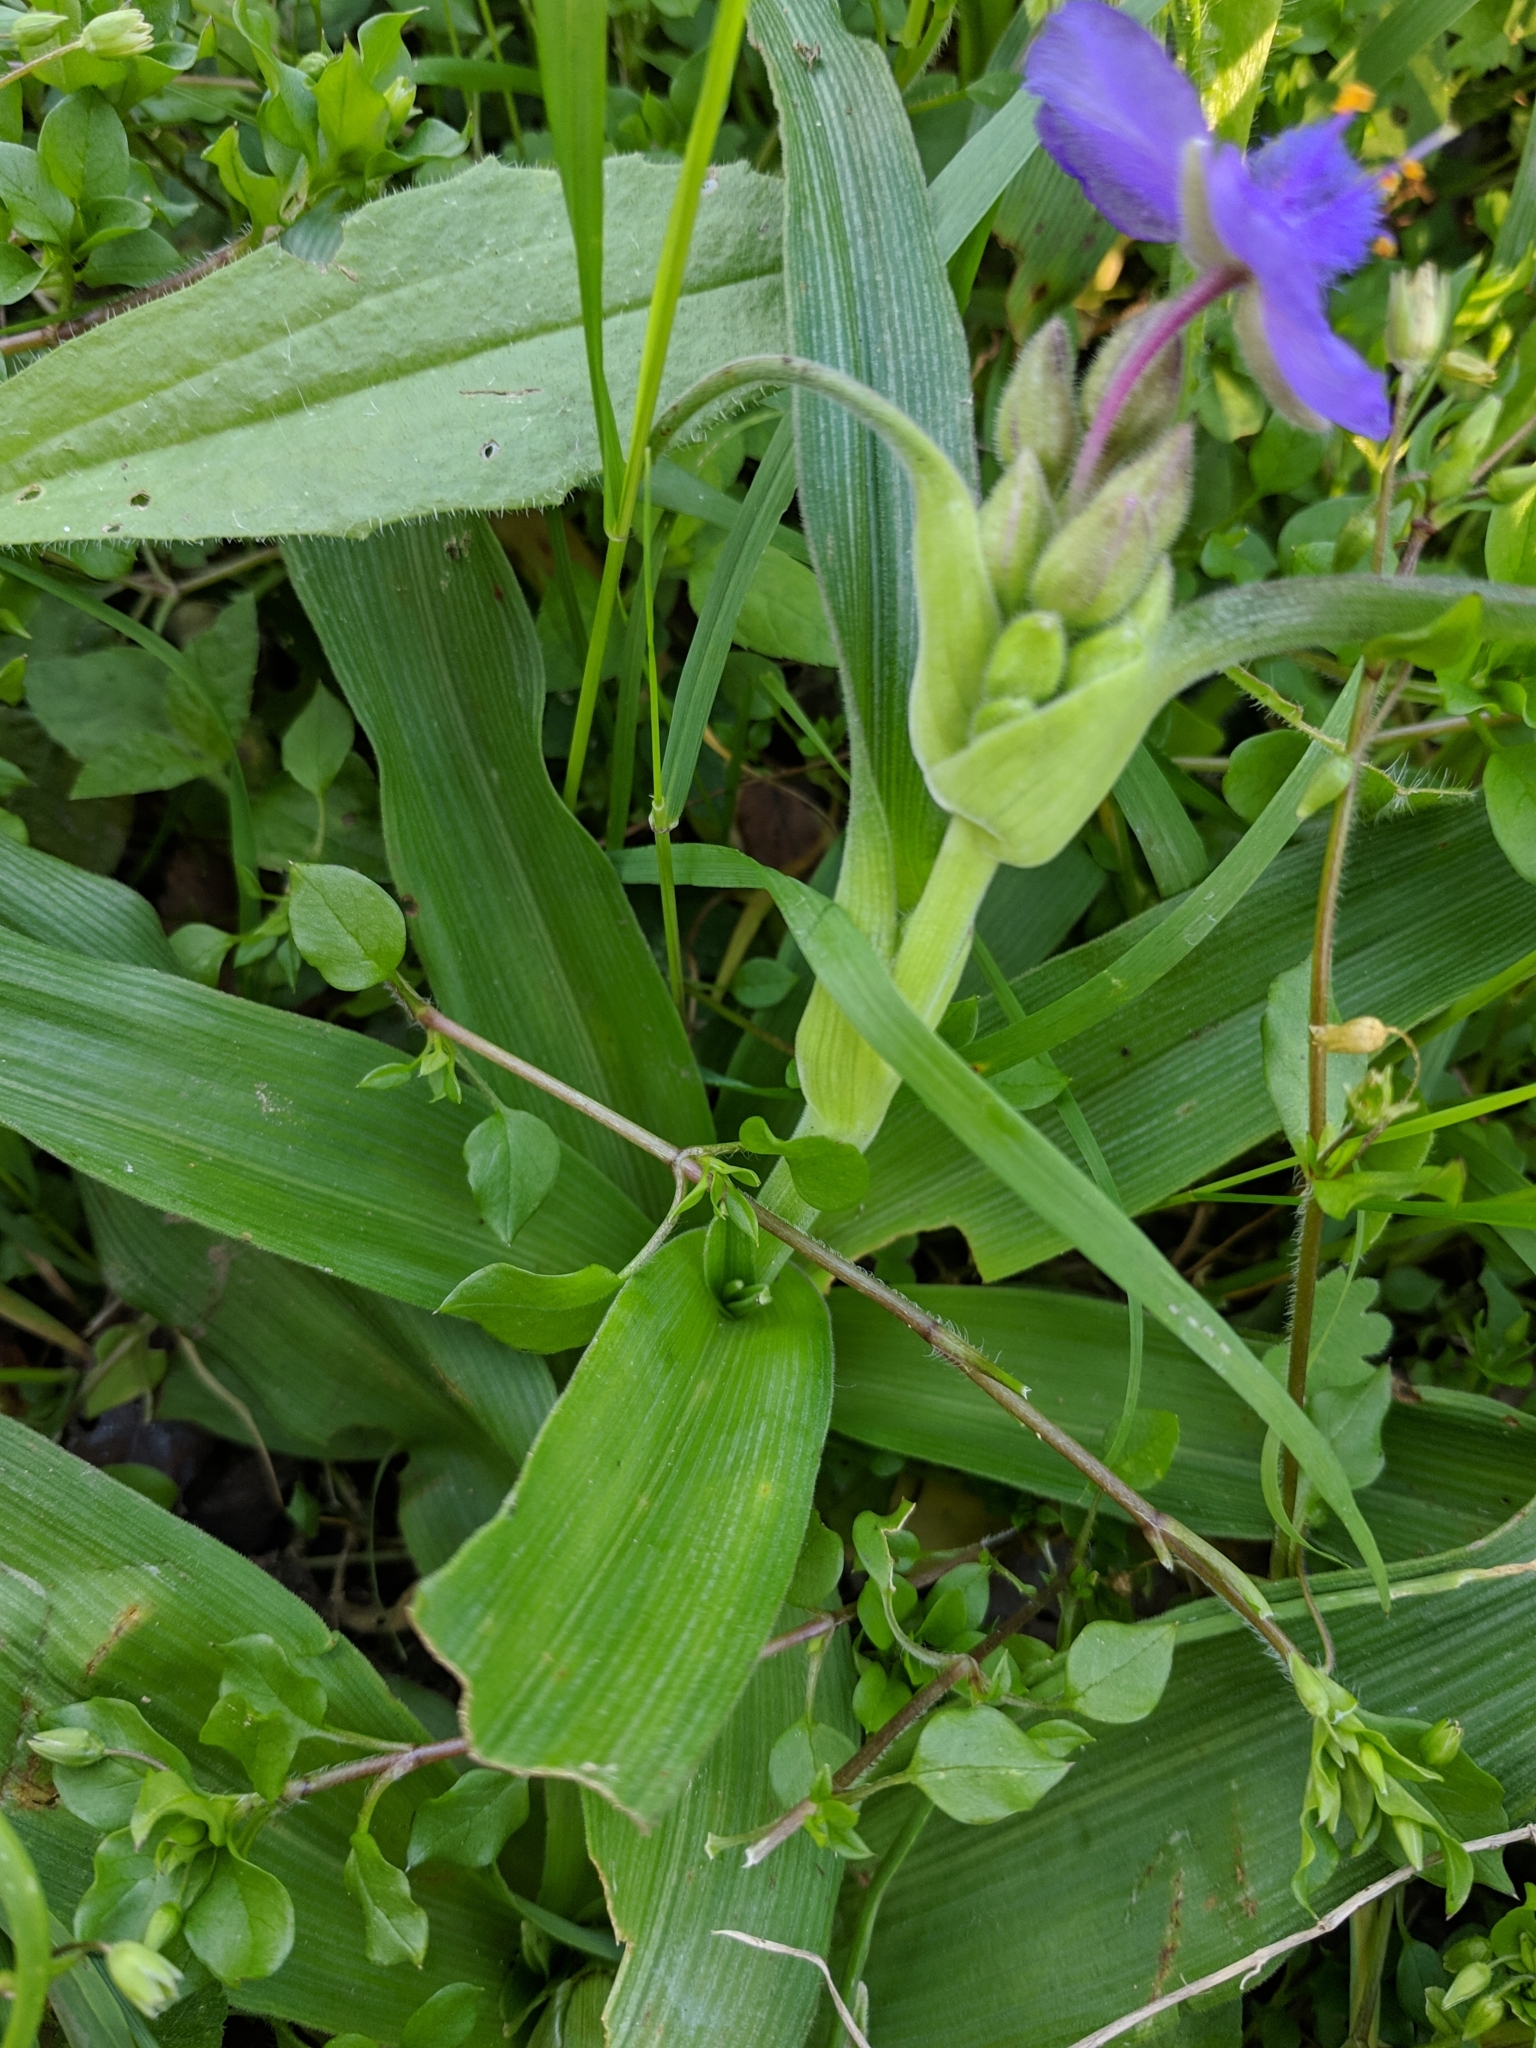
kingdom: Plantae
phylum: Tracheophyta
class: Liliopsida
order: Commelinales
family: Commelinaceae
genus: Tradescantia
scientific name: Tradescantia gigantea
